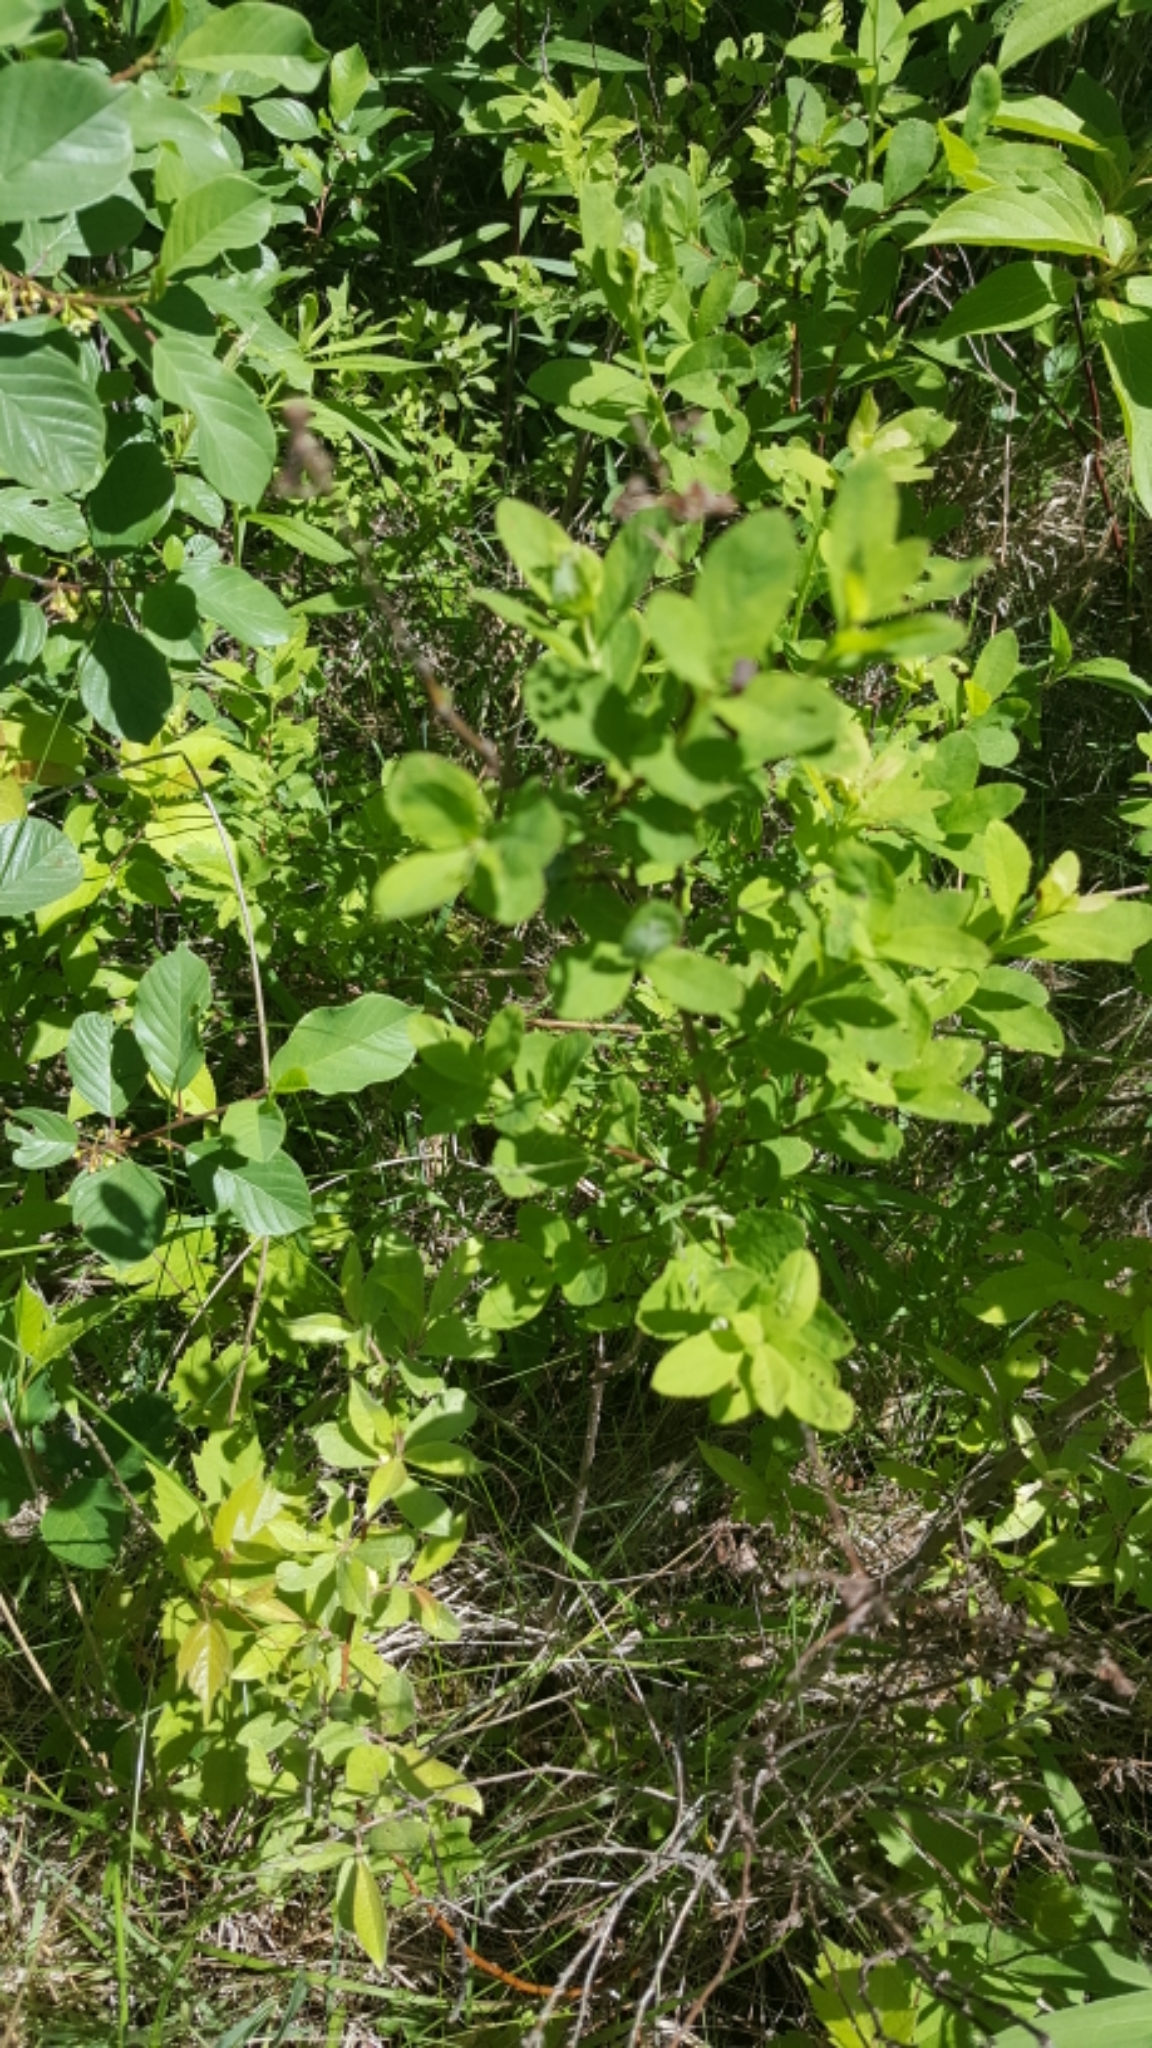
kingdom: Plantae
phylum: Tracheophyta
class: Magnoliopsida
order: Rosales
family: Rosaceae
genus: Spiraea
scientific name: Spiraea alba
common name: Pale bridewort
